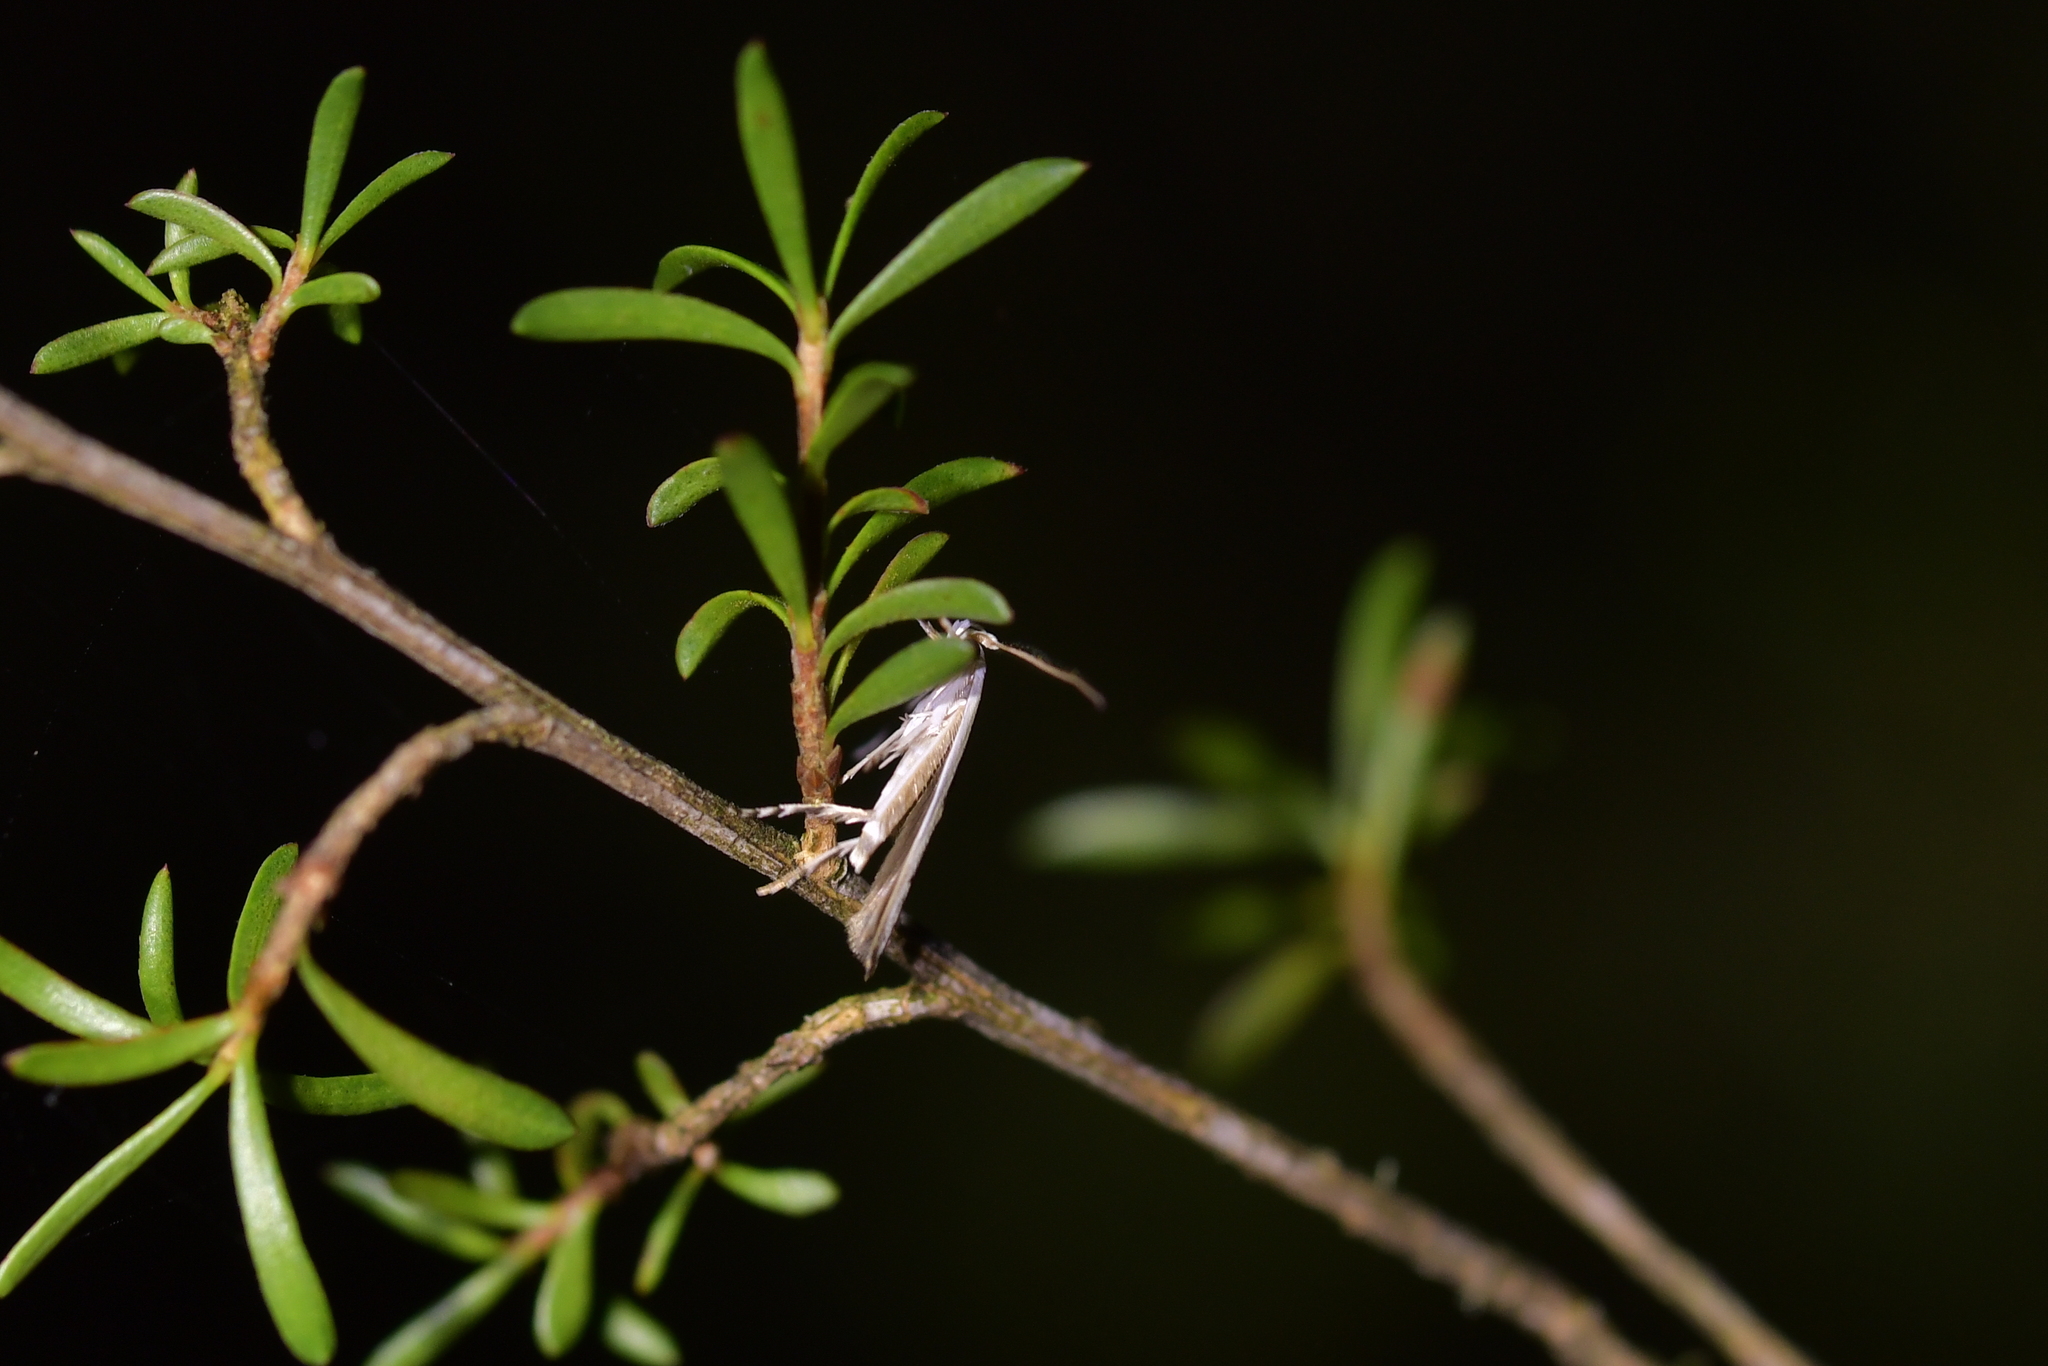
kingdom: Animalia
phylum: Arthropoda
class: Insecta
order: Lepidoptera
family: Roeslerstammiidae
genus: Vanicela
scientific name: Vanicela disjunctella
